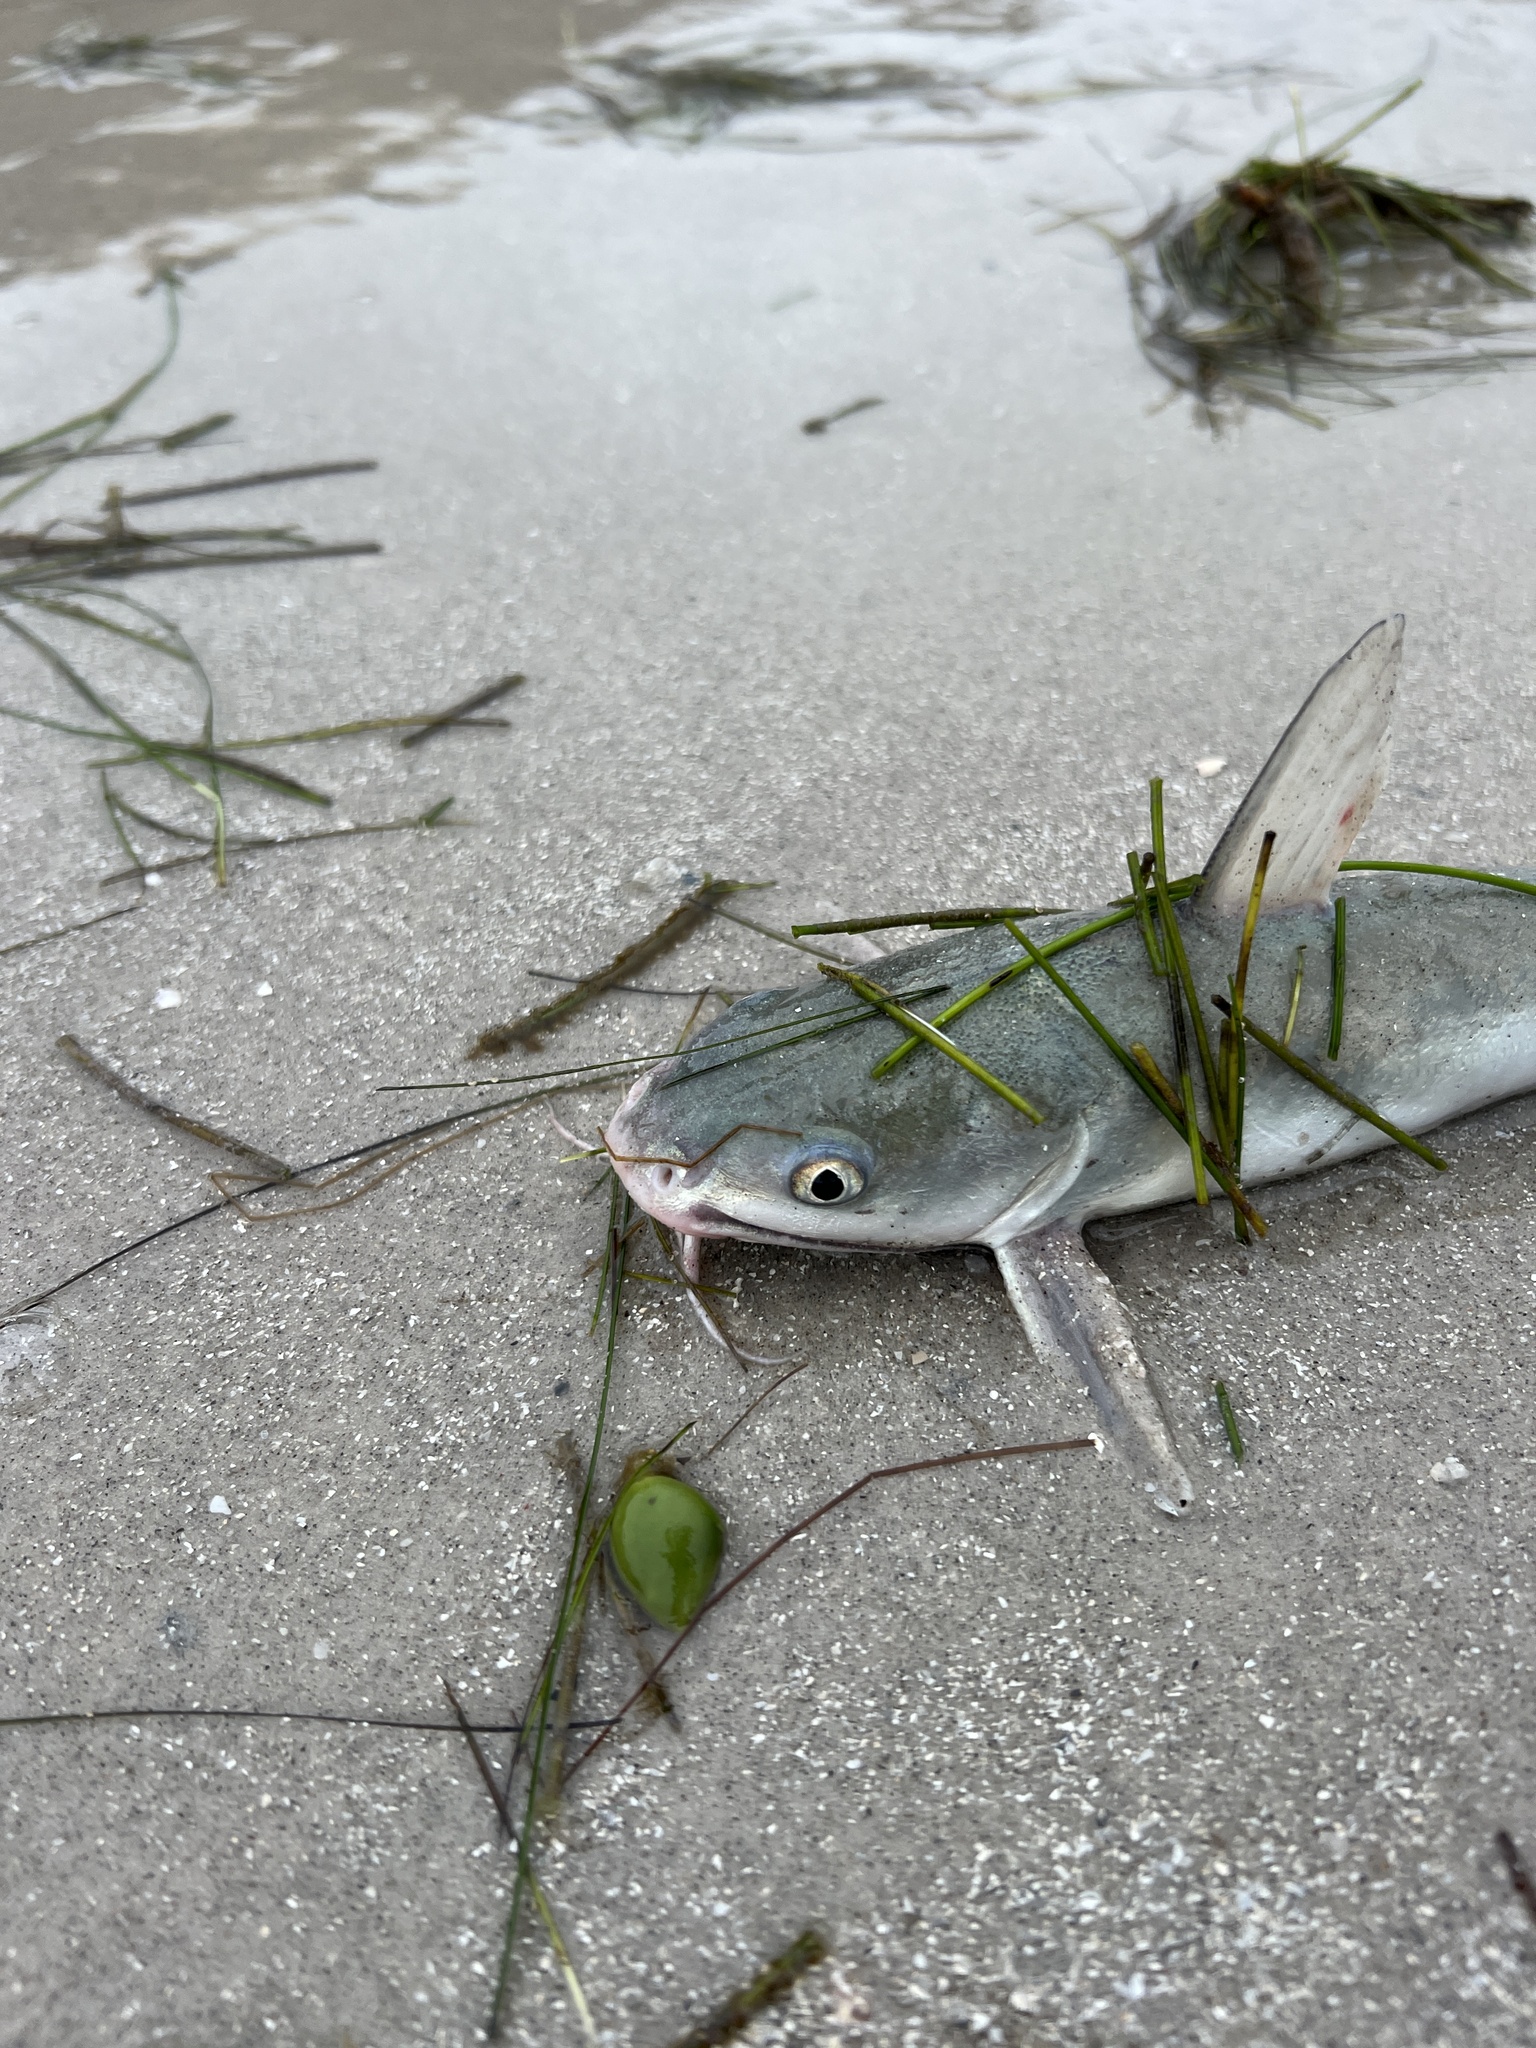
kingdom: Animalia
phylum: Chordata
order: Siluriformes
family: Ariidae
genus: Ariopsis
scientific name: Ariopsis felis
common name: Hardhead catfish
